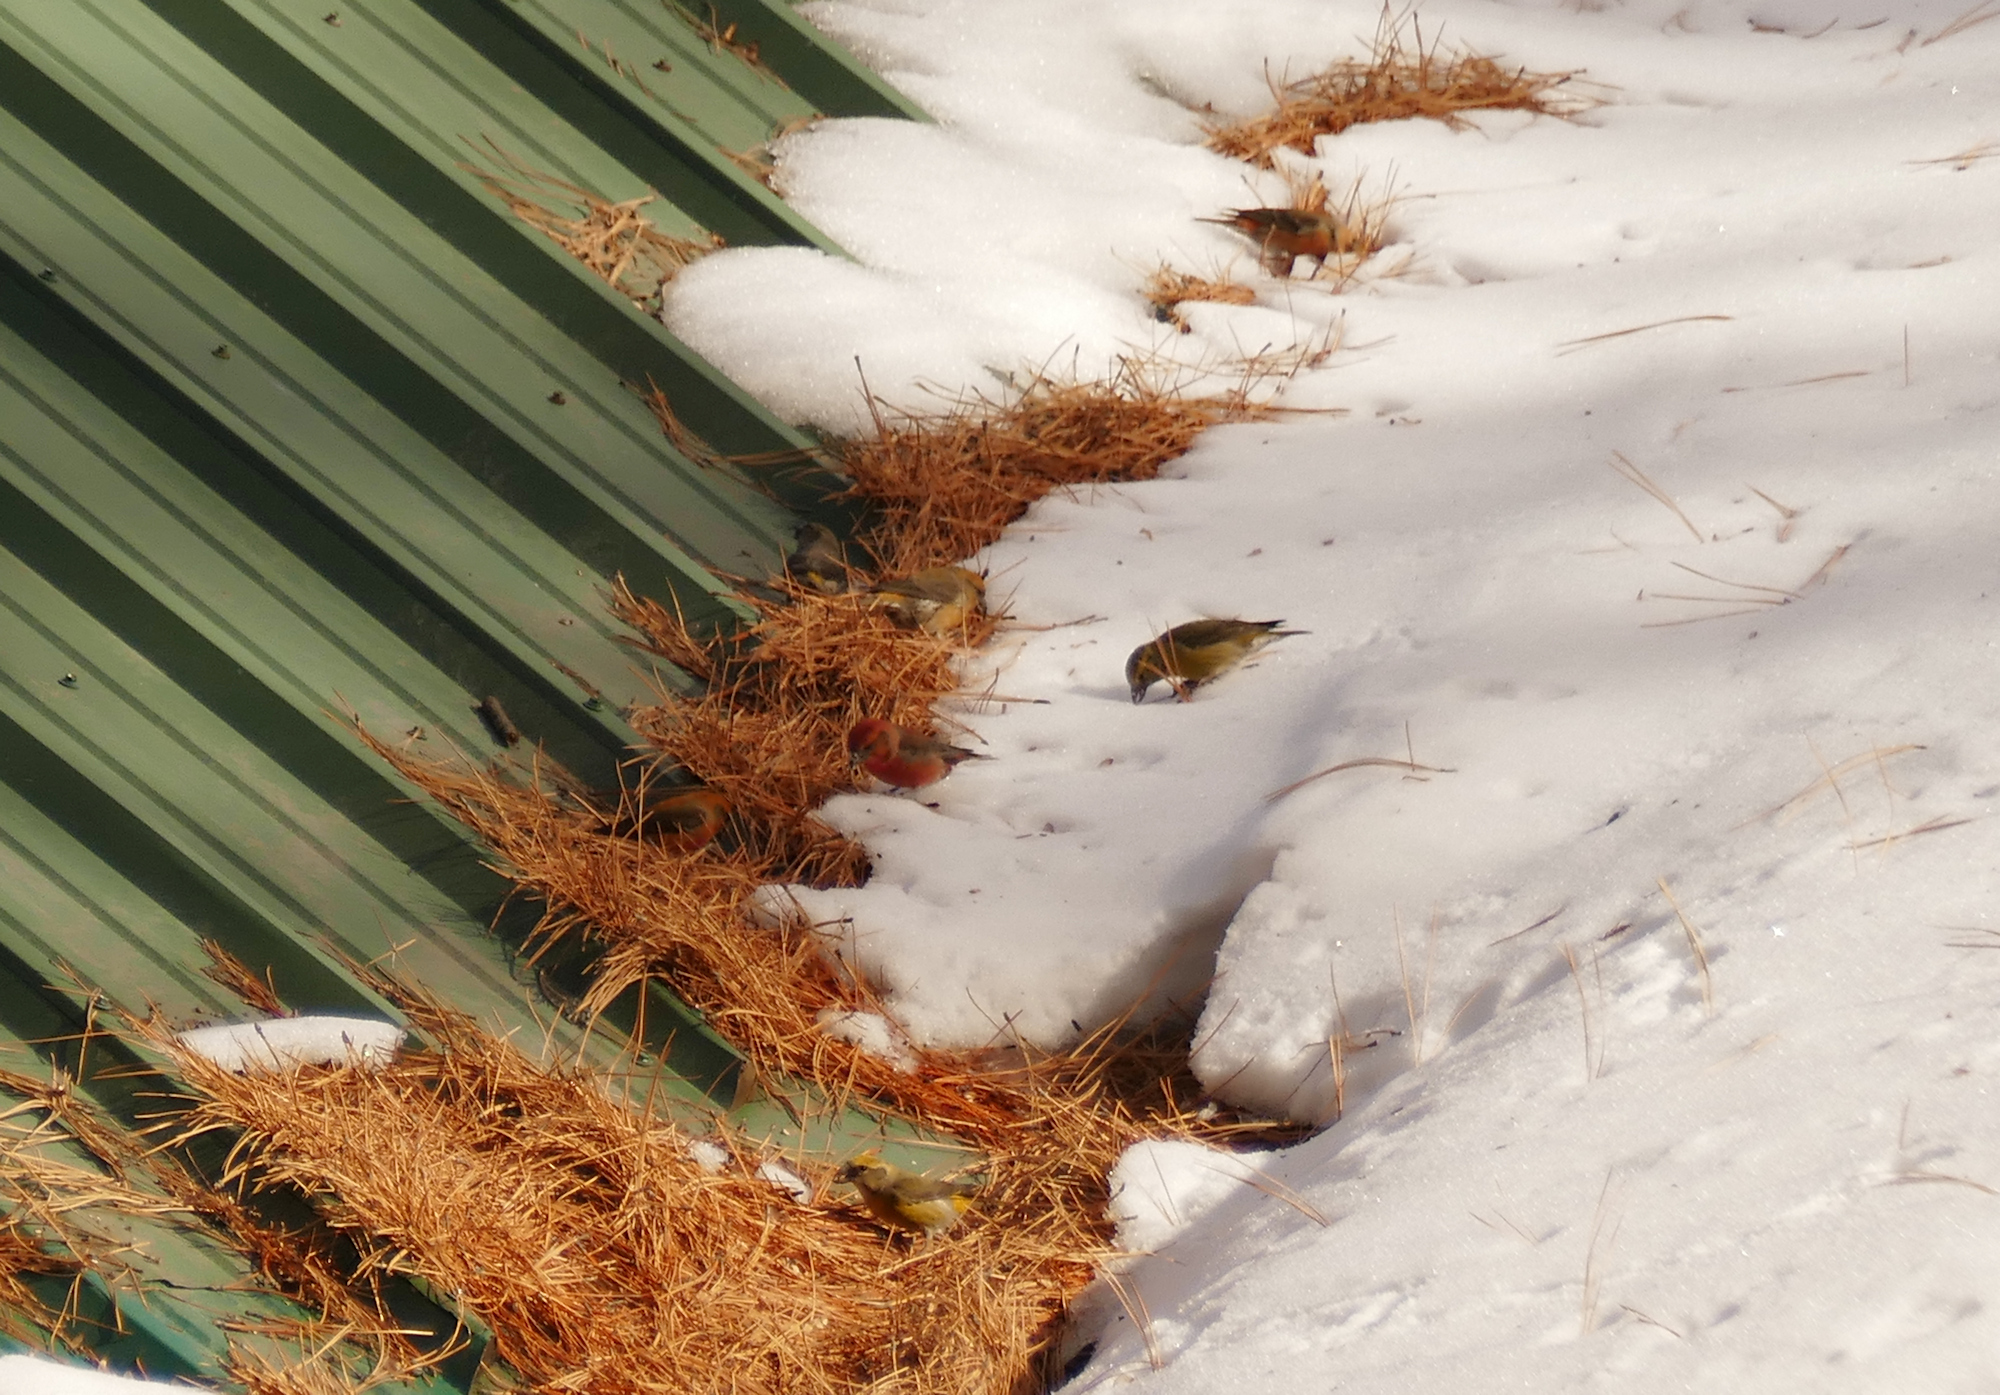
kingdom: Animalia
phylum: Chordata
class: Aves
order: Passeriformes
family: Fringillidae
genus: Loxia
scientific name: Loxia curvirostra
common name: Red crossbill
